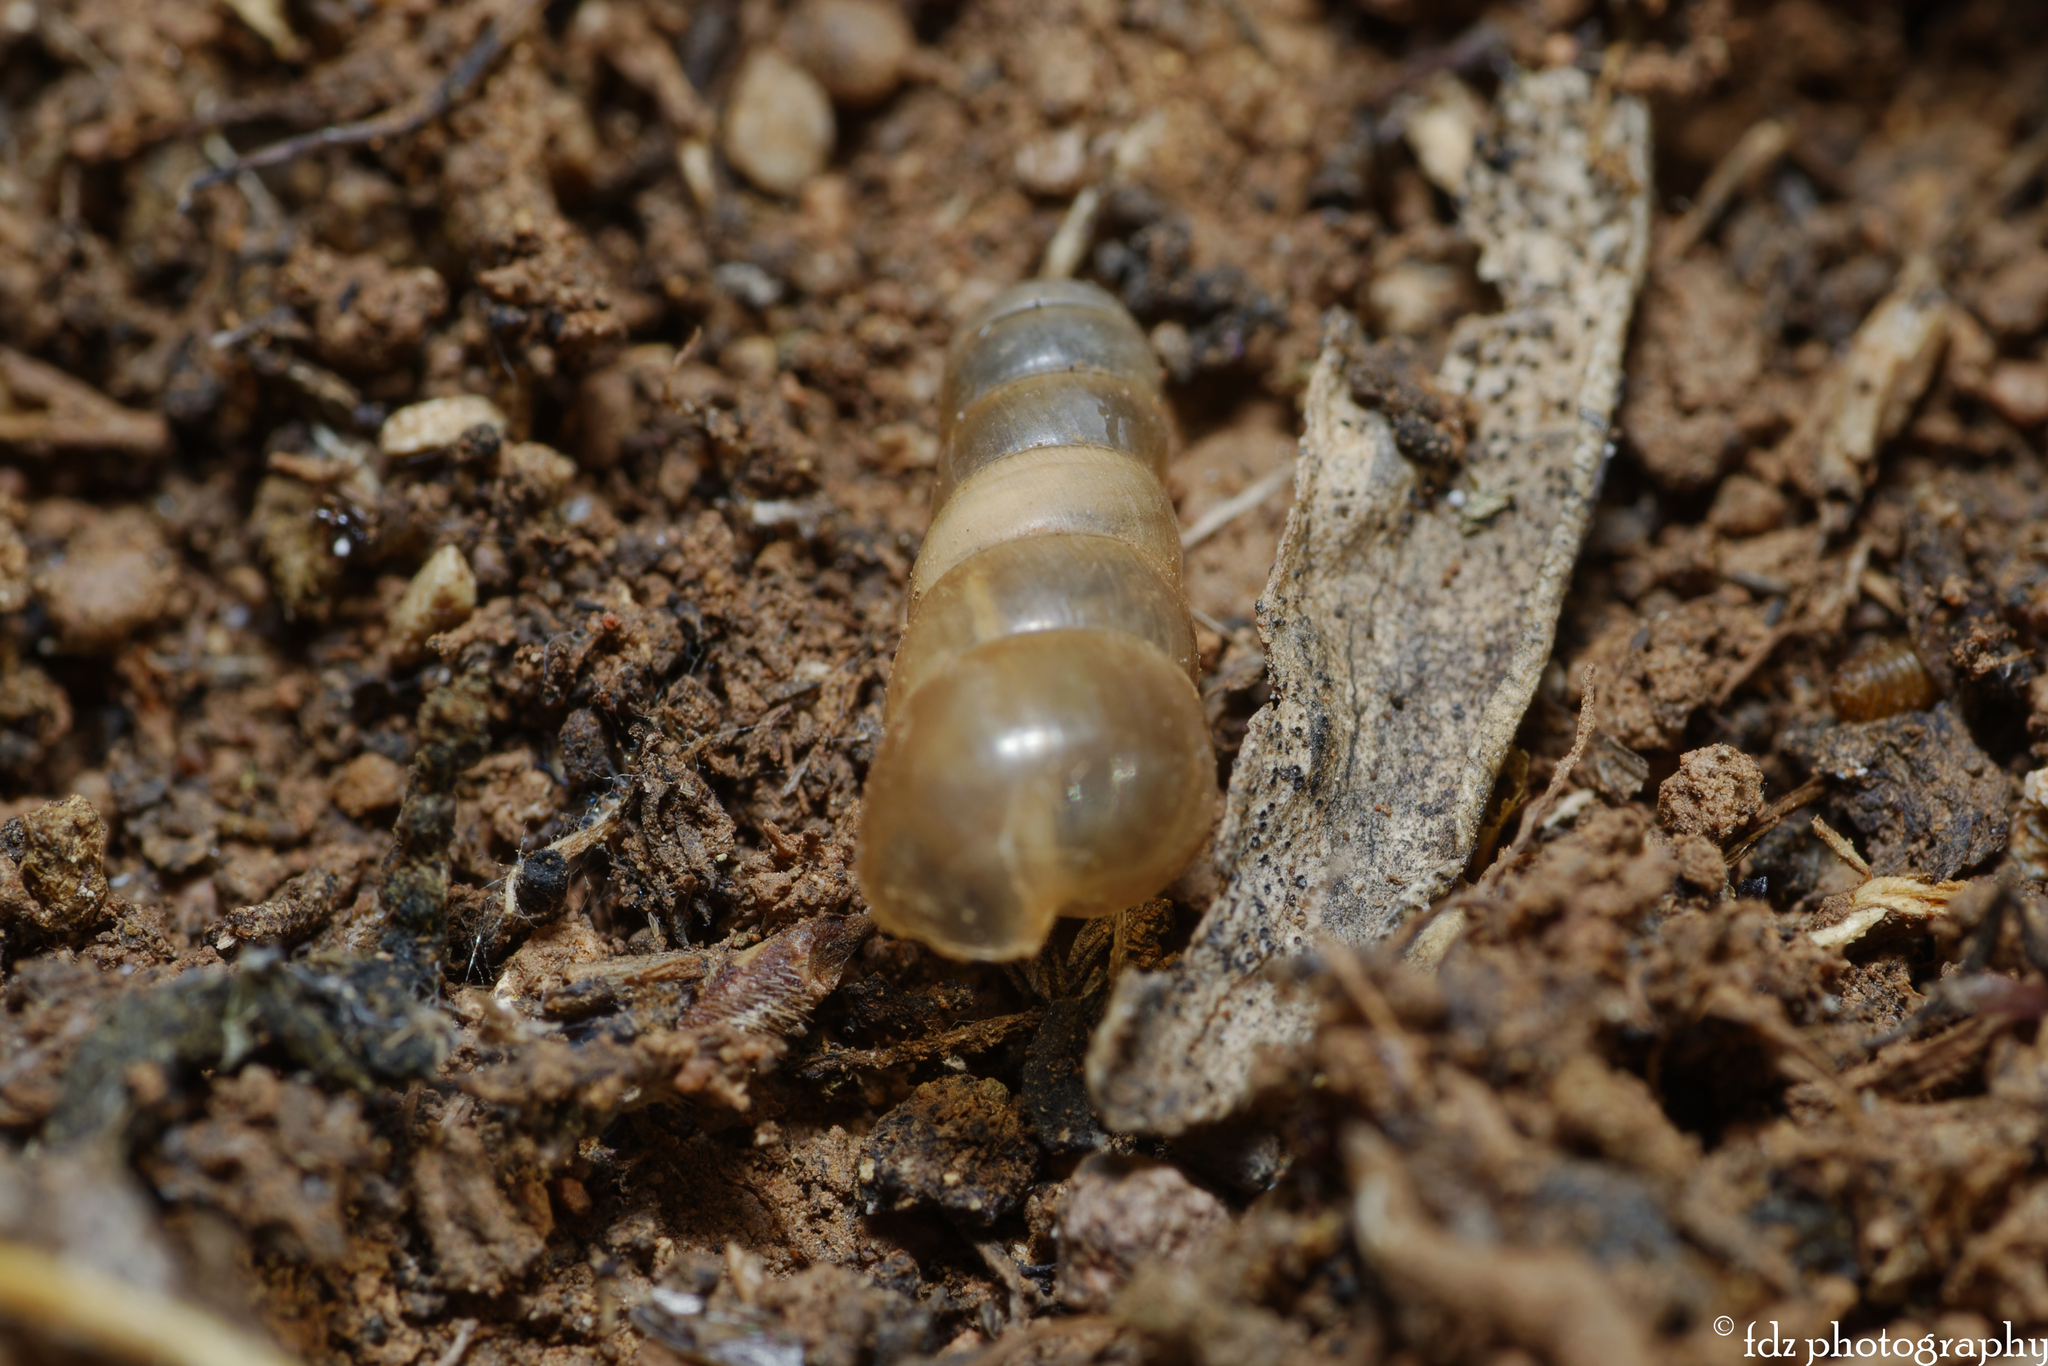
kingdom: Animalia
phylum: Mollusca
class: Gastropoda
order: Stylommatophora
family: Achatinidae
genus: Rumina
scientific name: Rumina decollata
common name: Decollate snail
